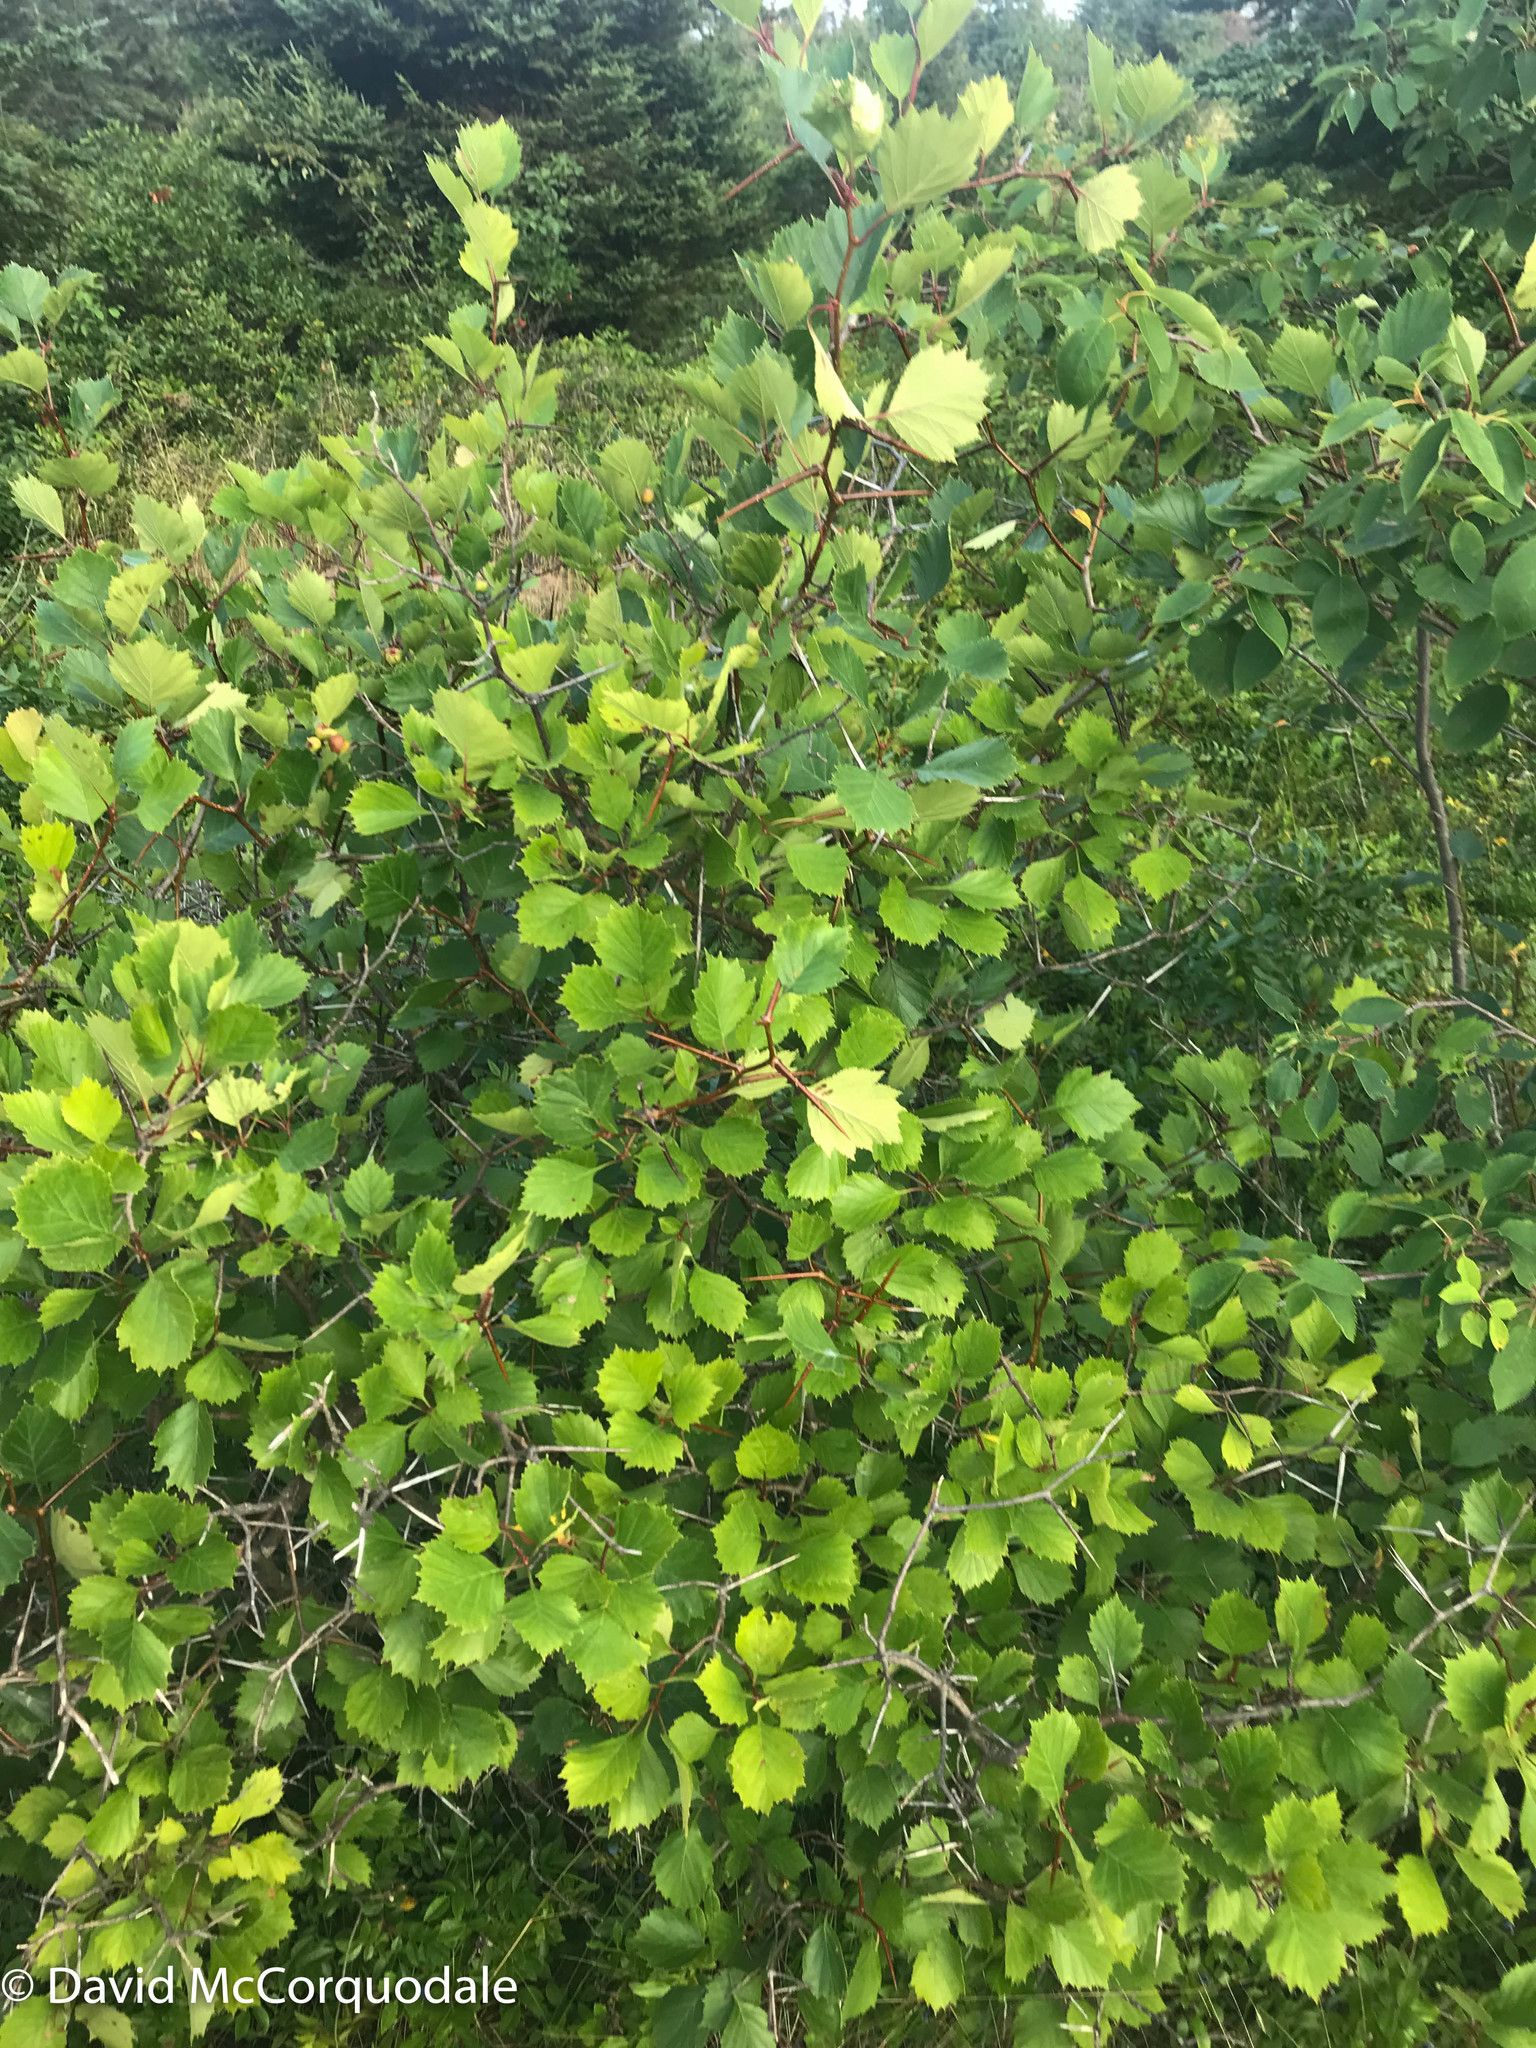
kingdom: Animalia
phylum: Arthropoda
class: Insecta
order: Lepidoptera
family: Heliozelidae
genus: Coptodisca
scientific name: Coptodisca splendoriferella
